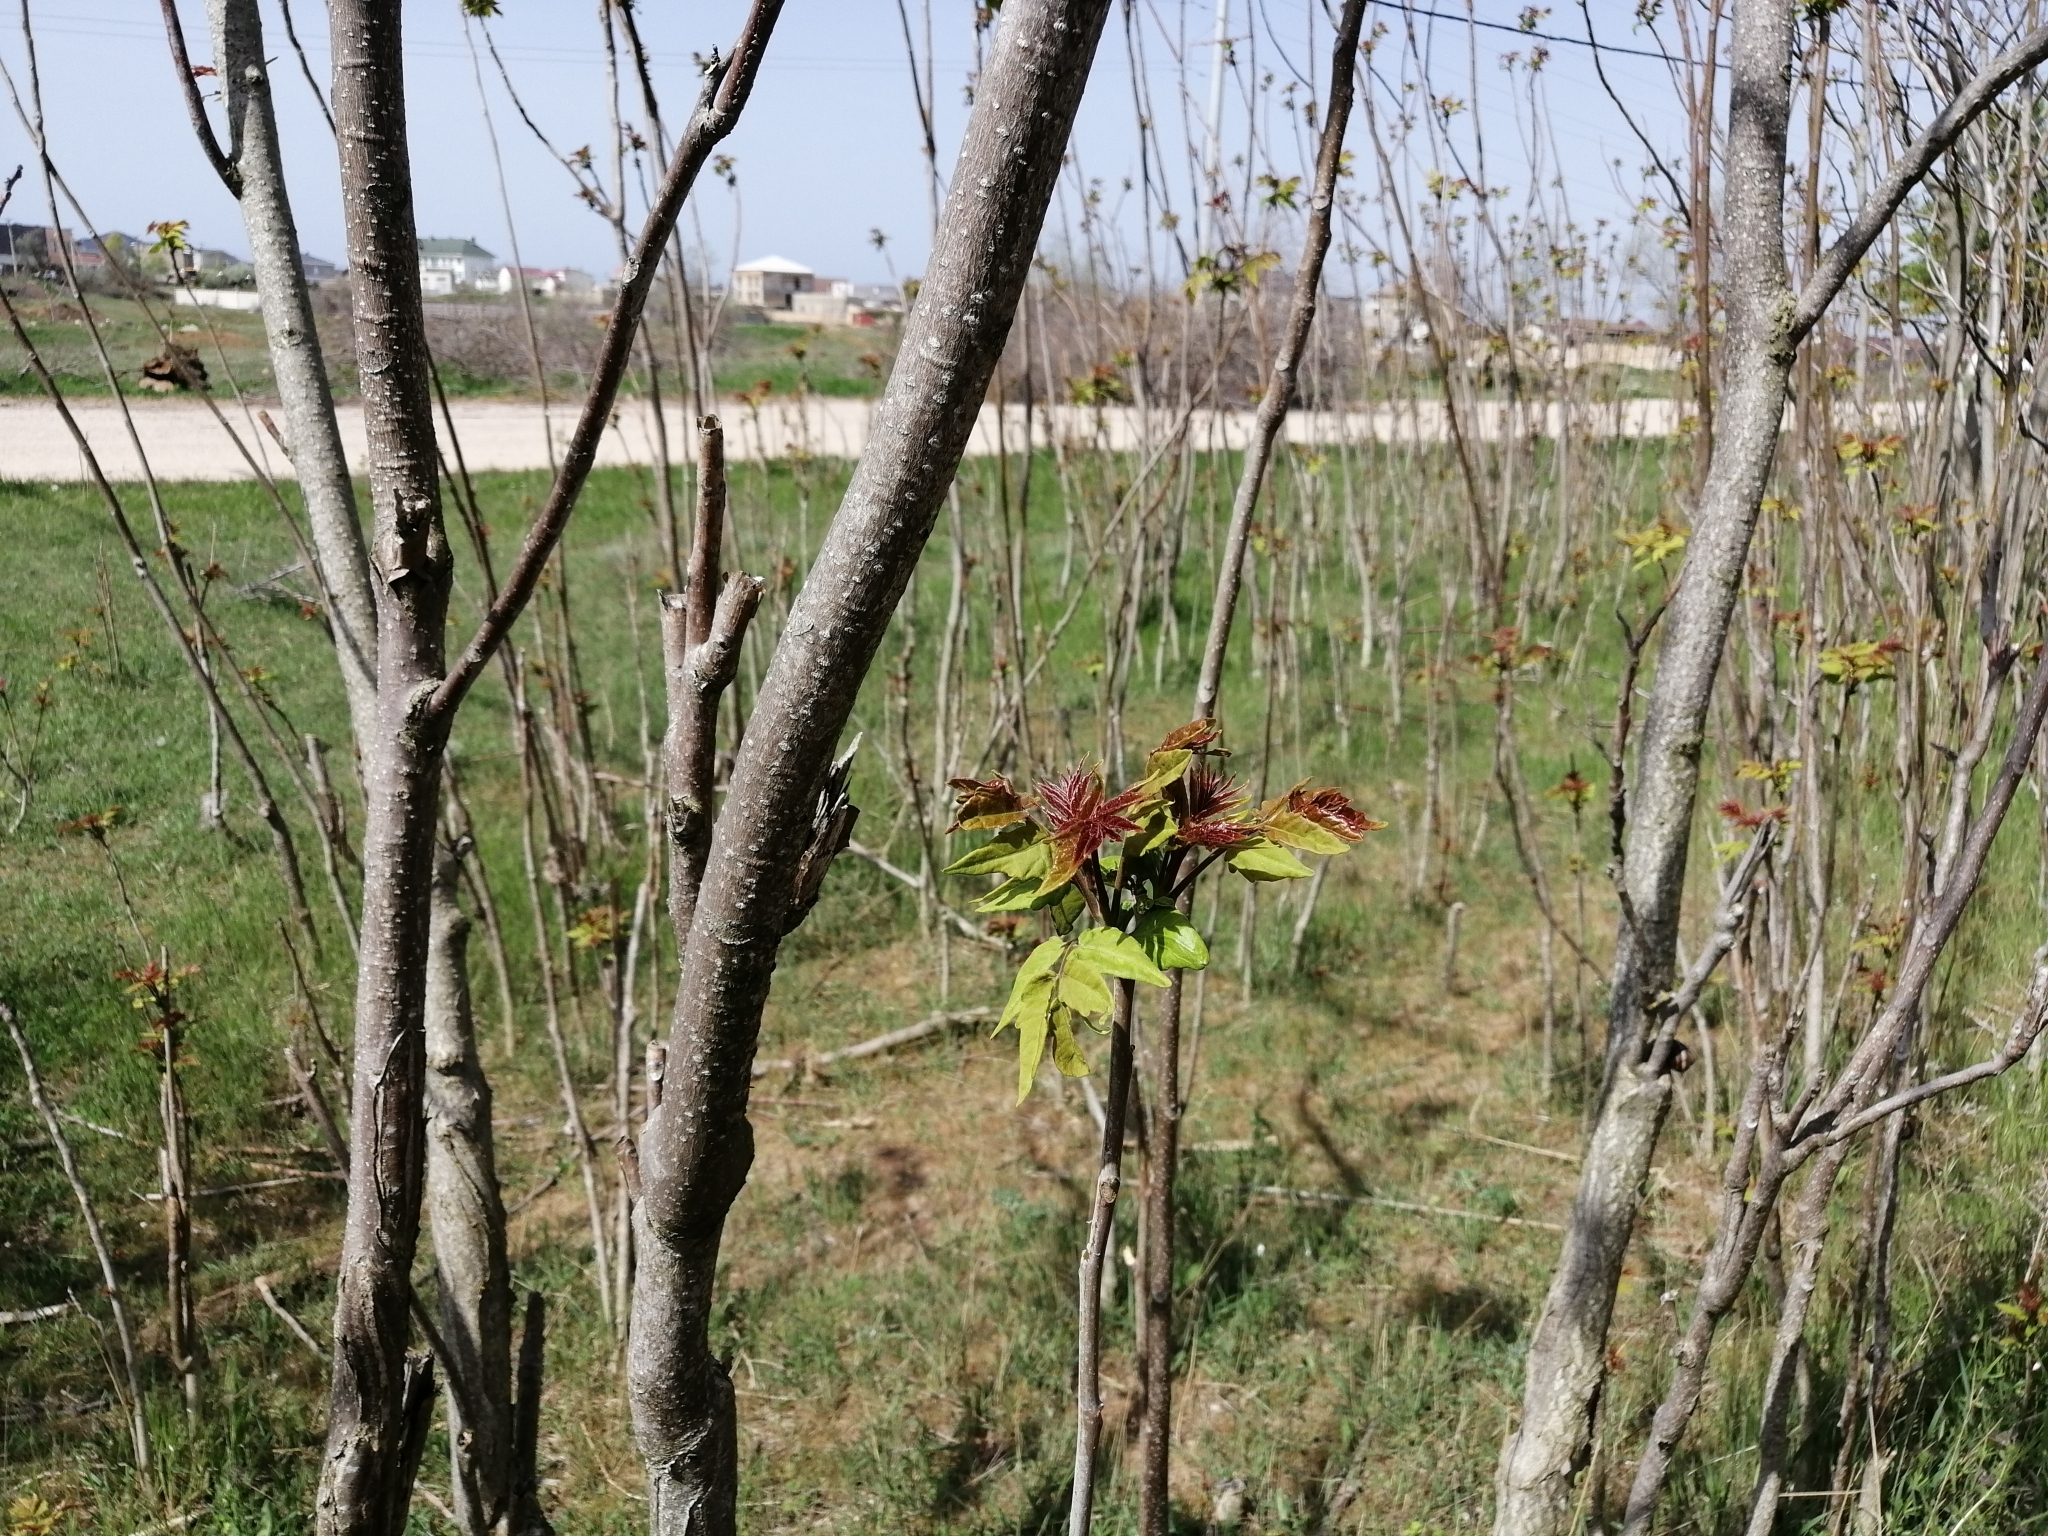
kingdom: Plantae
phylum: Tracheophyta
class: Magnoliopsida
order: Sapindales
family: Simaroubaceae
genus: Ailanthus
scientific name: Ailanthus altissima
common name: Tree-of-heaven
